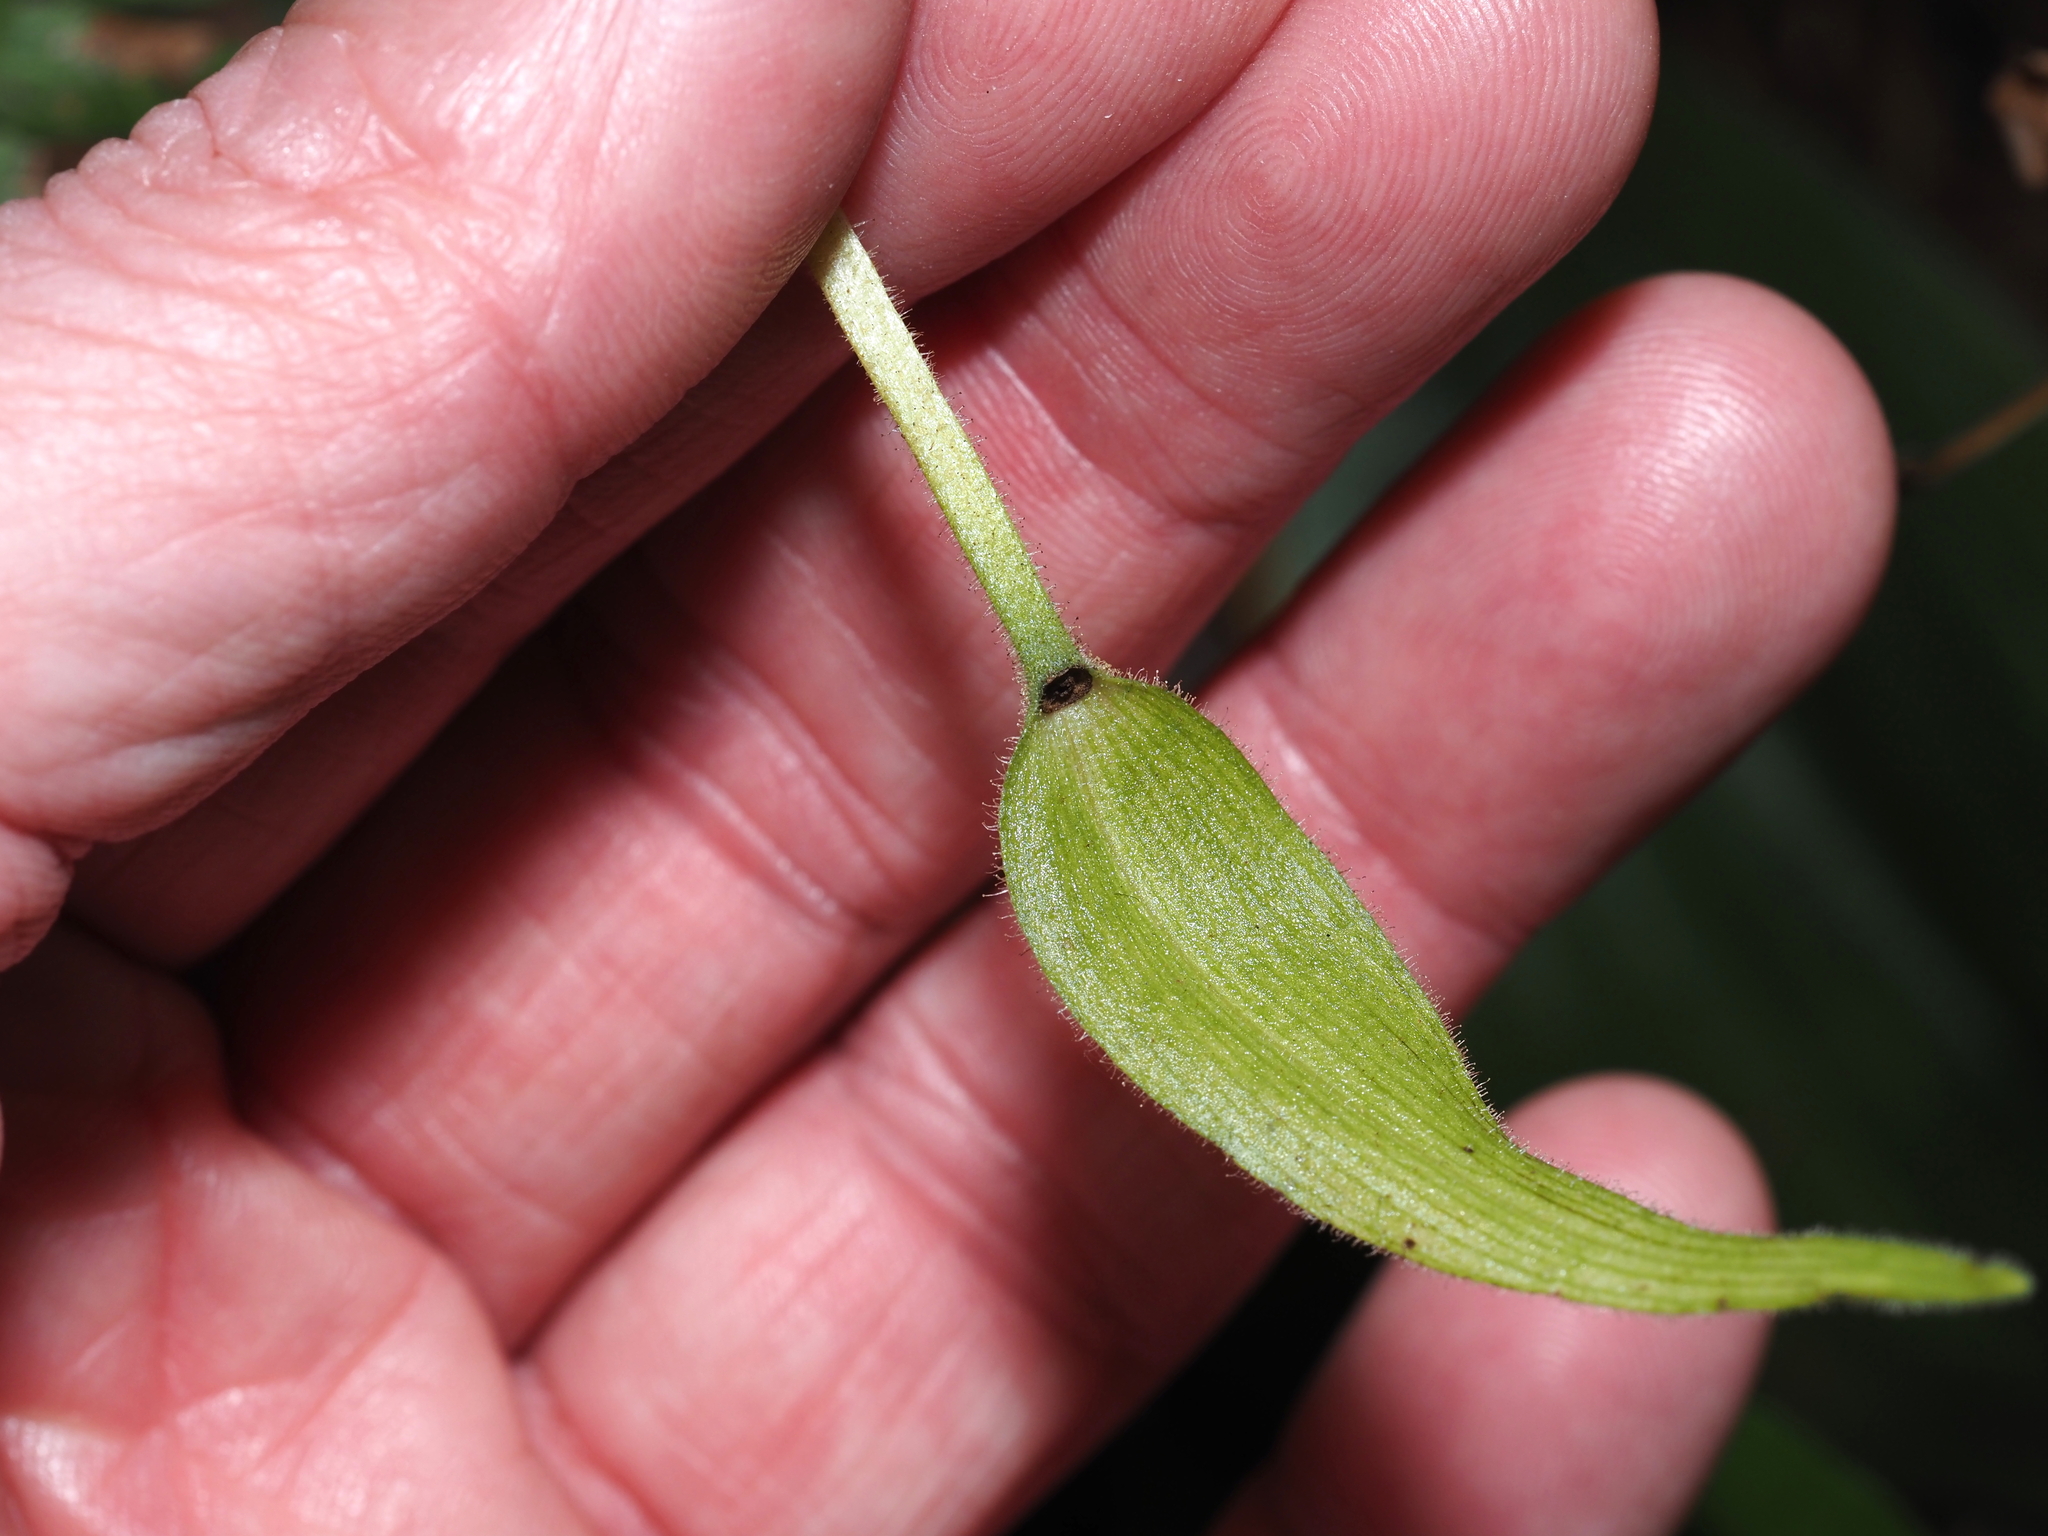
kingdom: Plantae
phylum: Tracheophyta
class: Liliopsida
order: Asparagales
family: Orchidaceae
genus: Cypripedium
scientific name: Cypripedium acaule
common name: Pink lady's-slipper
